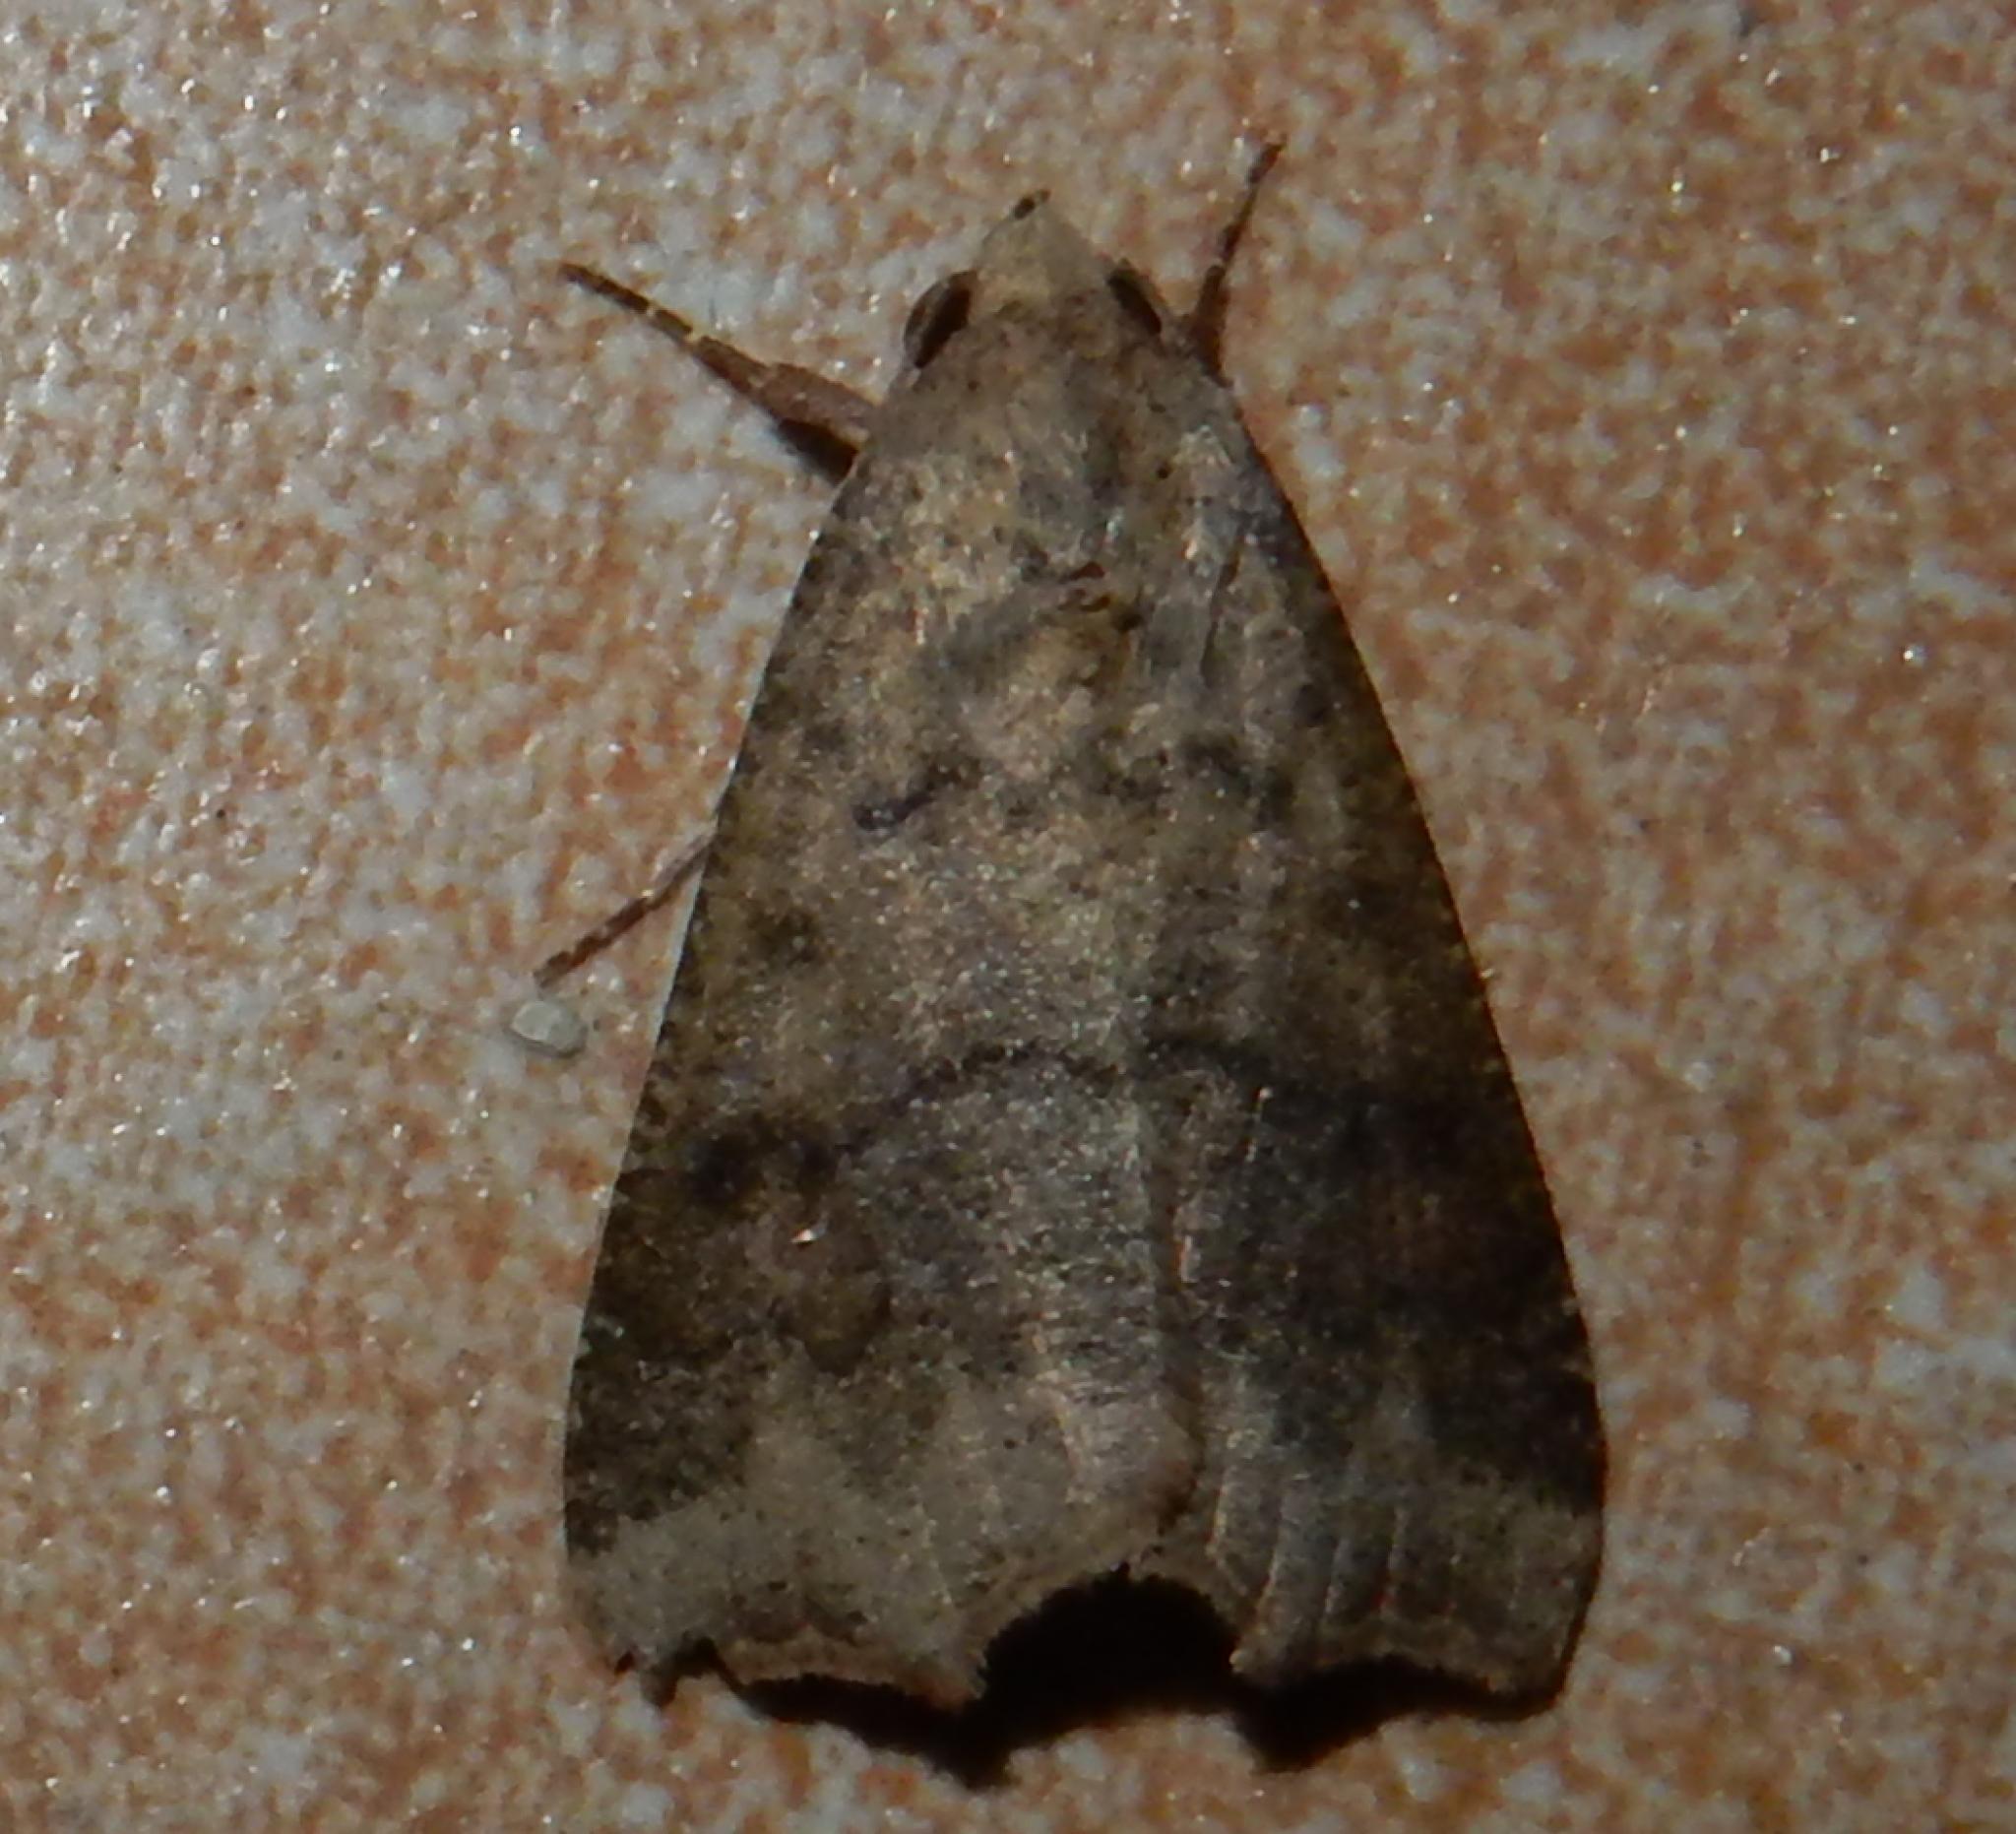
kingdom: Animalia
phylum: Arthropoda
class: Insecta
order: Lepidoptera
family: Erebidae
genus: Anomis
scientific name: Anomis sabulifera
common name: Angled gem
